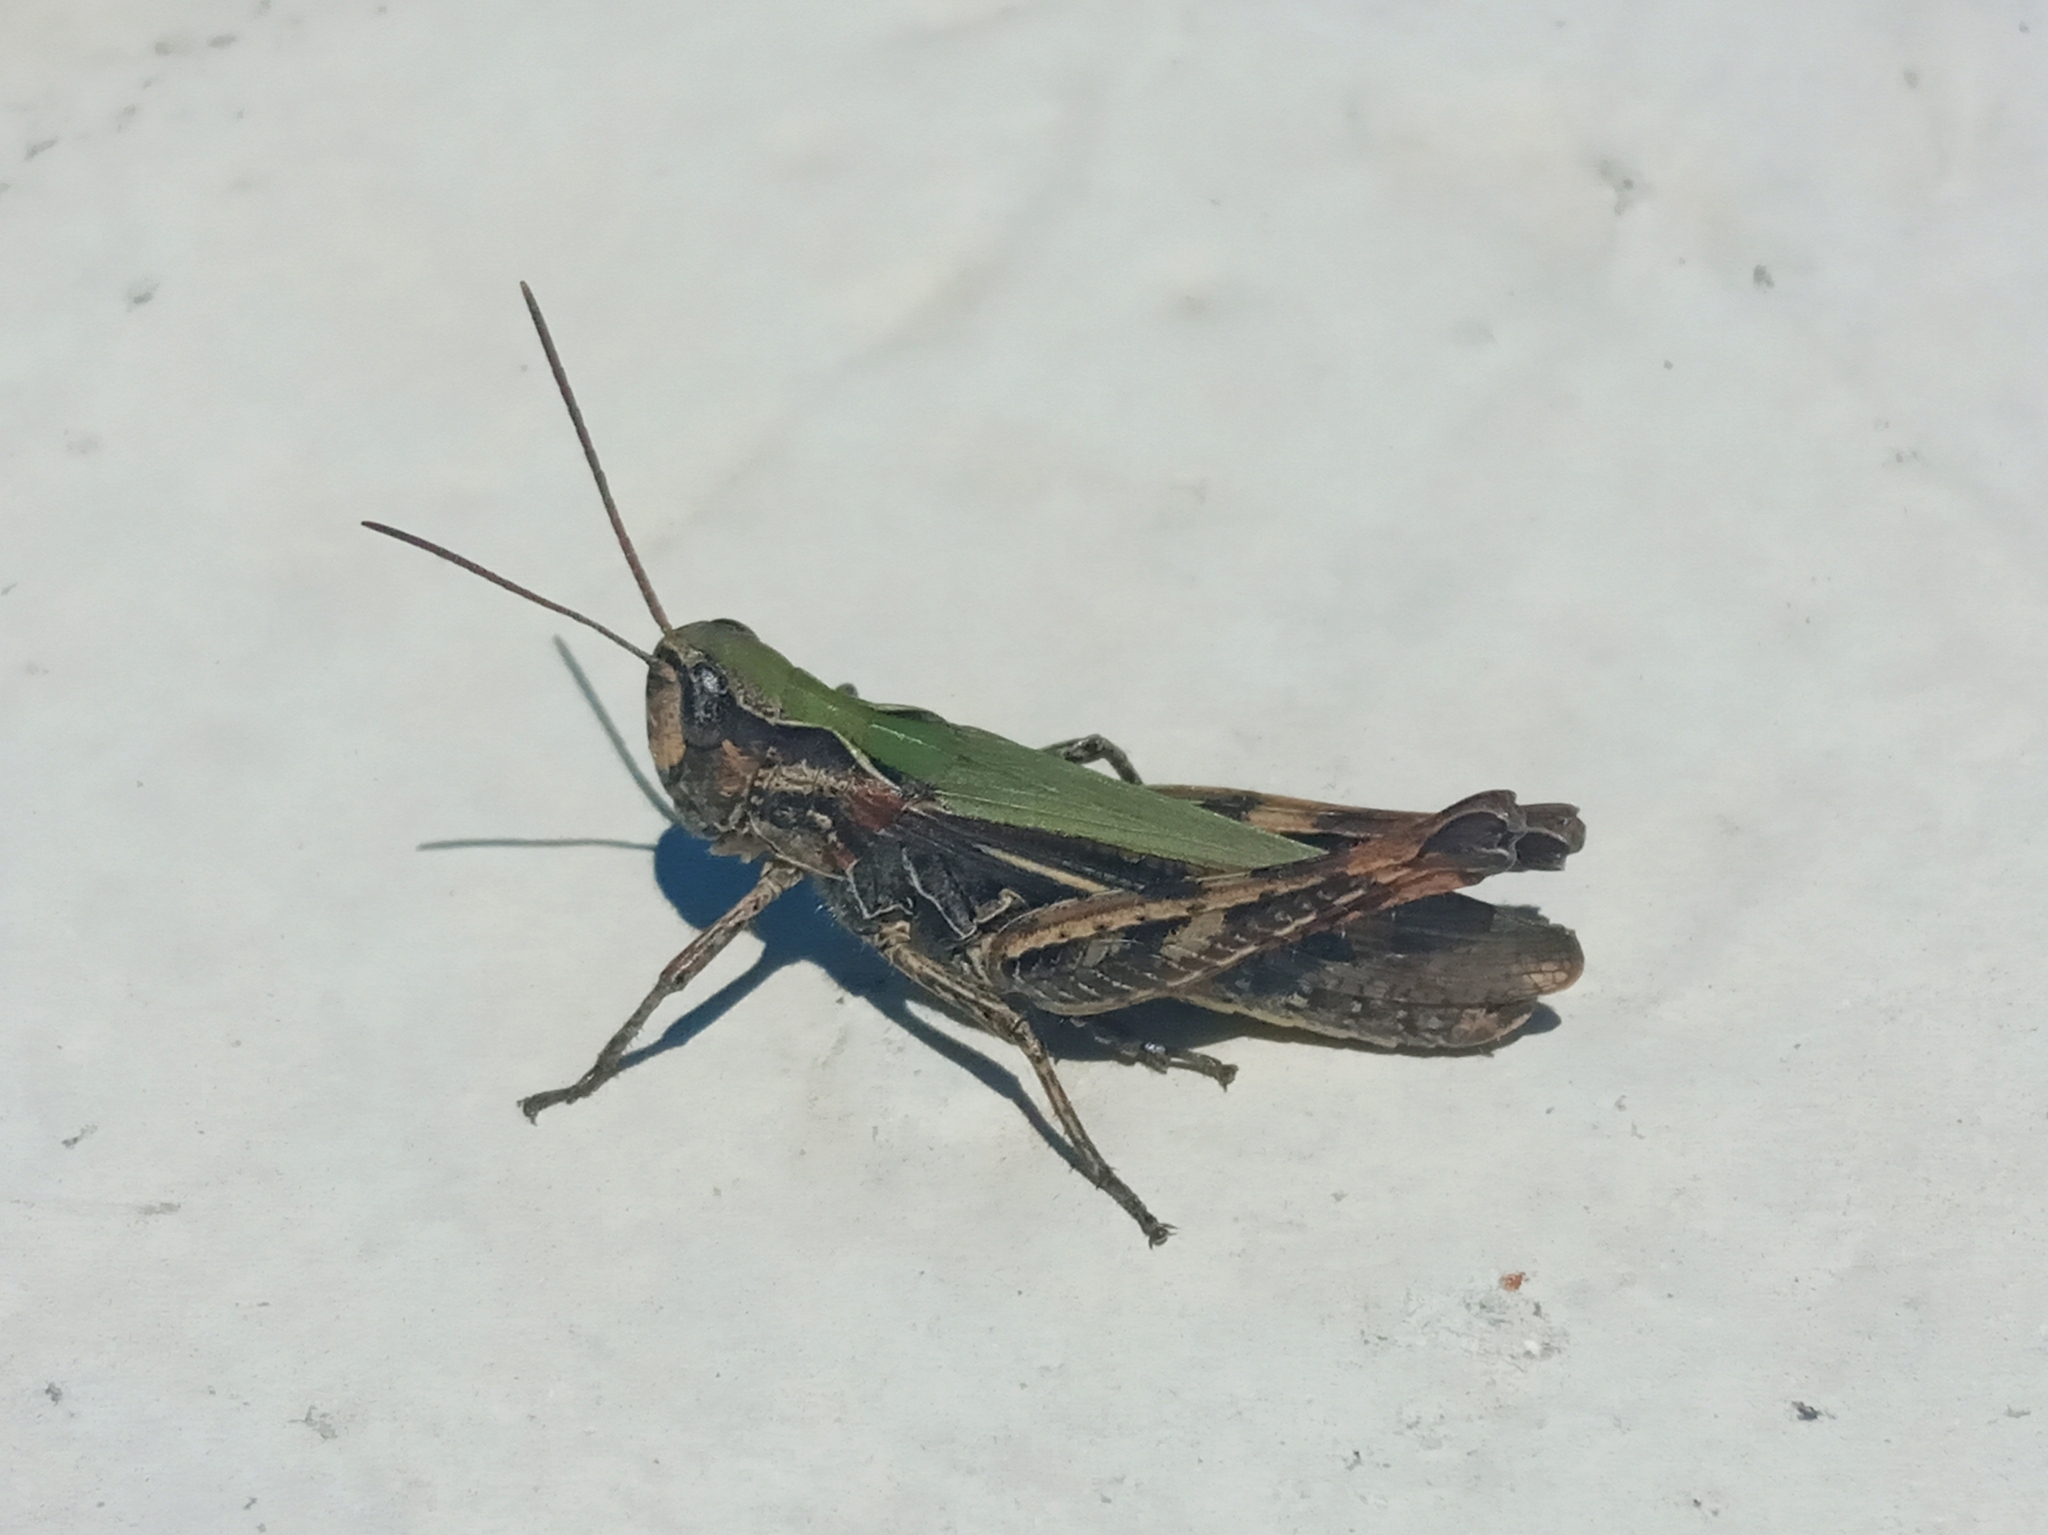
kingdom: Animalia
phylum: Arthropoda
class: Insecta
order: Orthoptera
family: Acrididae
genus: Omocestus
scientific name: Omocestus
